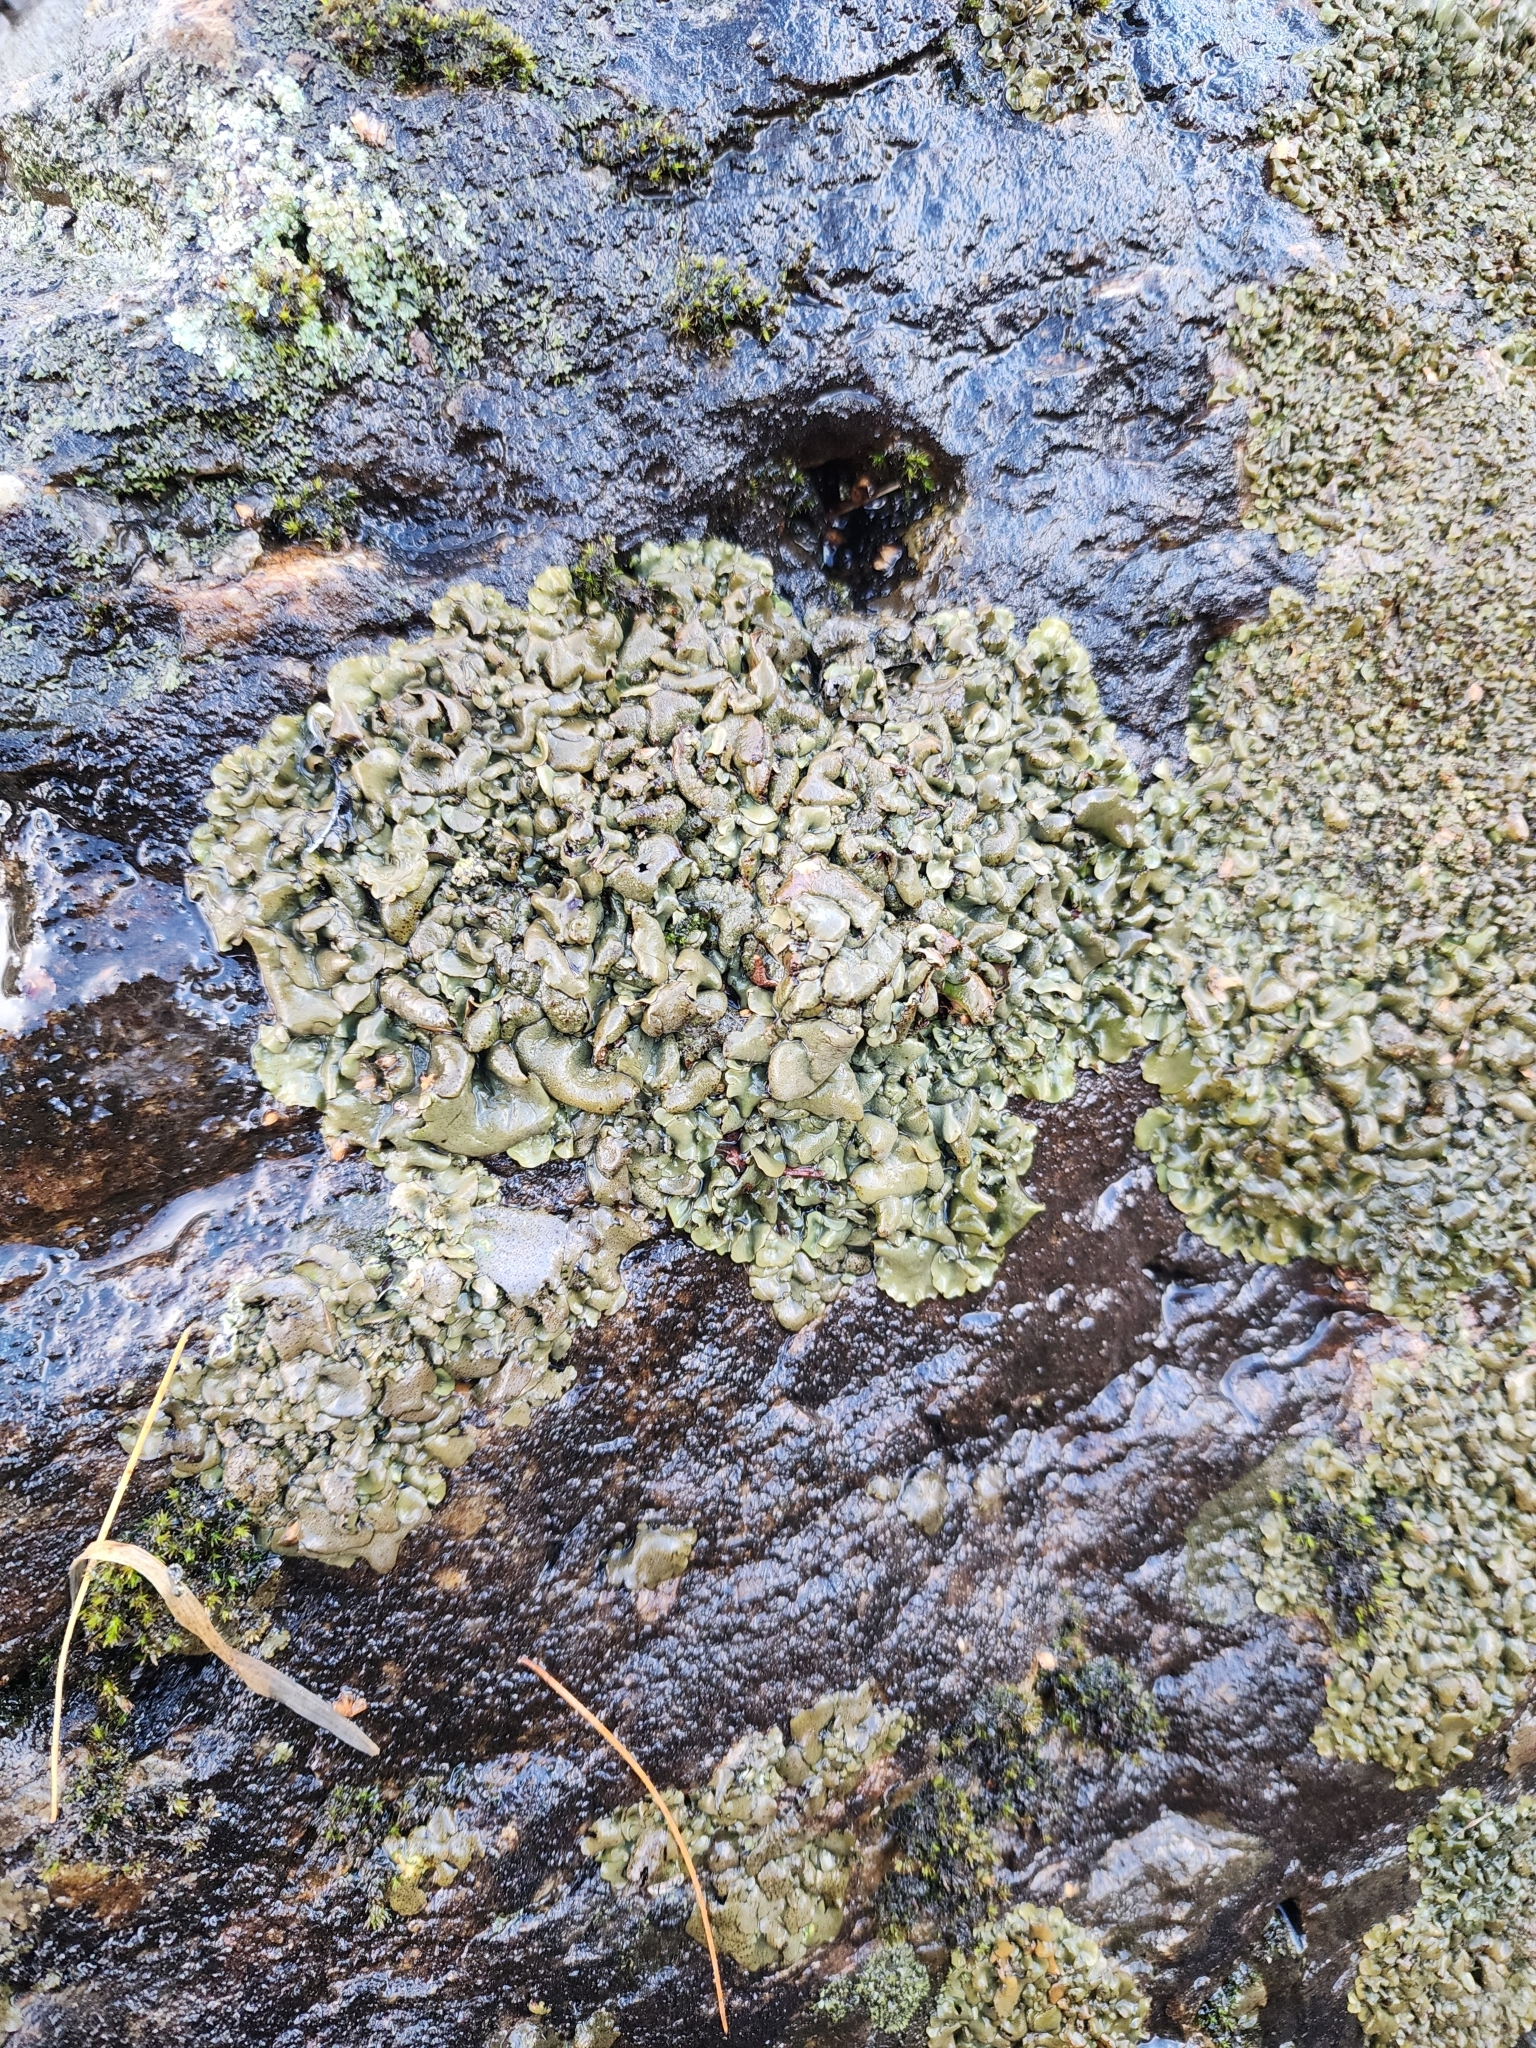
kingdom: Fungi
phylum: Ascomycota
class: Eurotiomycetes
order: Verrucariales
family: Verrucariaceae
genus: Dermatocarpon
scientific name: Dermatocarpon luridum
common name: Brook stippleback lichen
